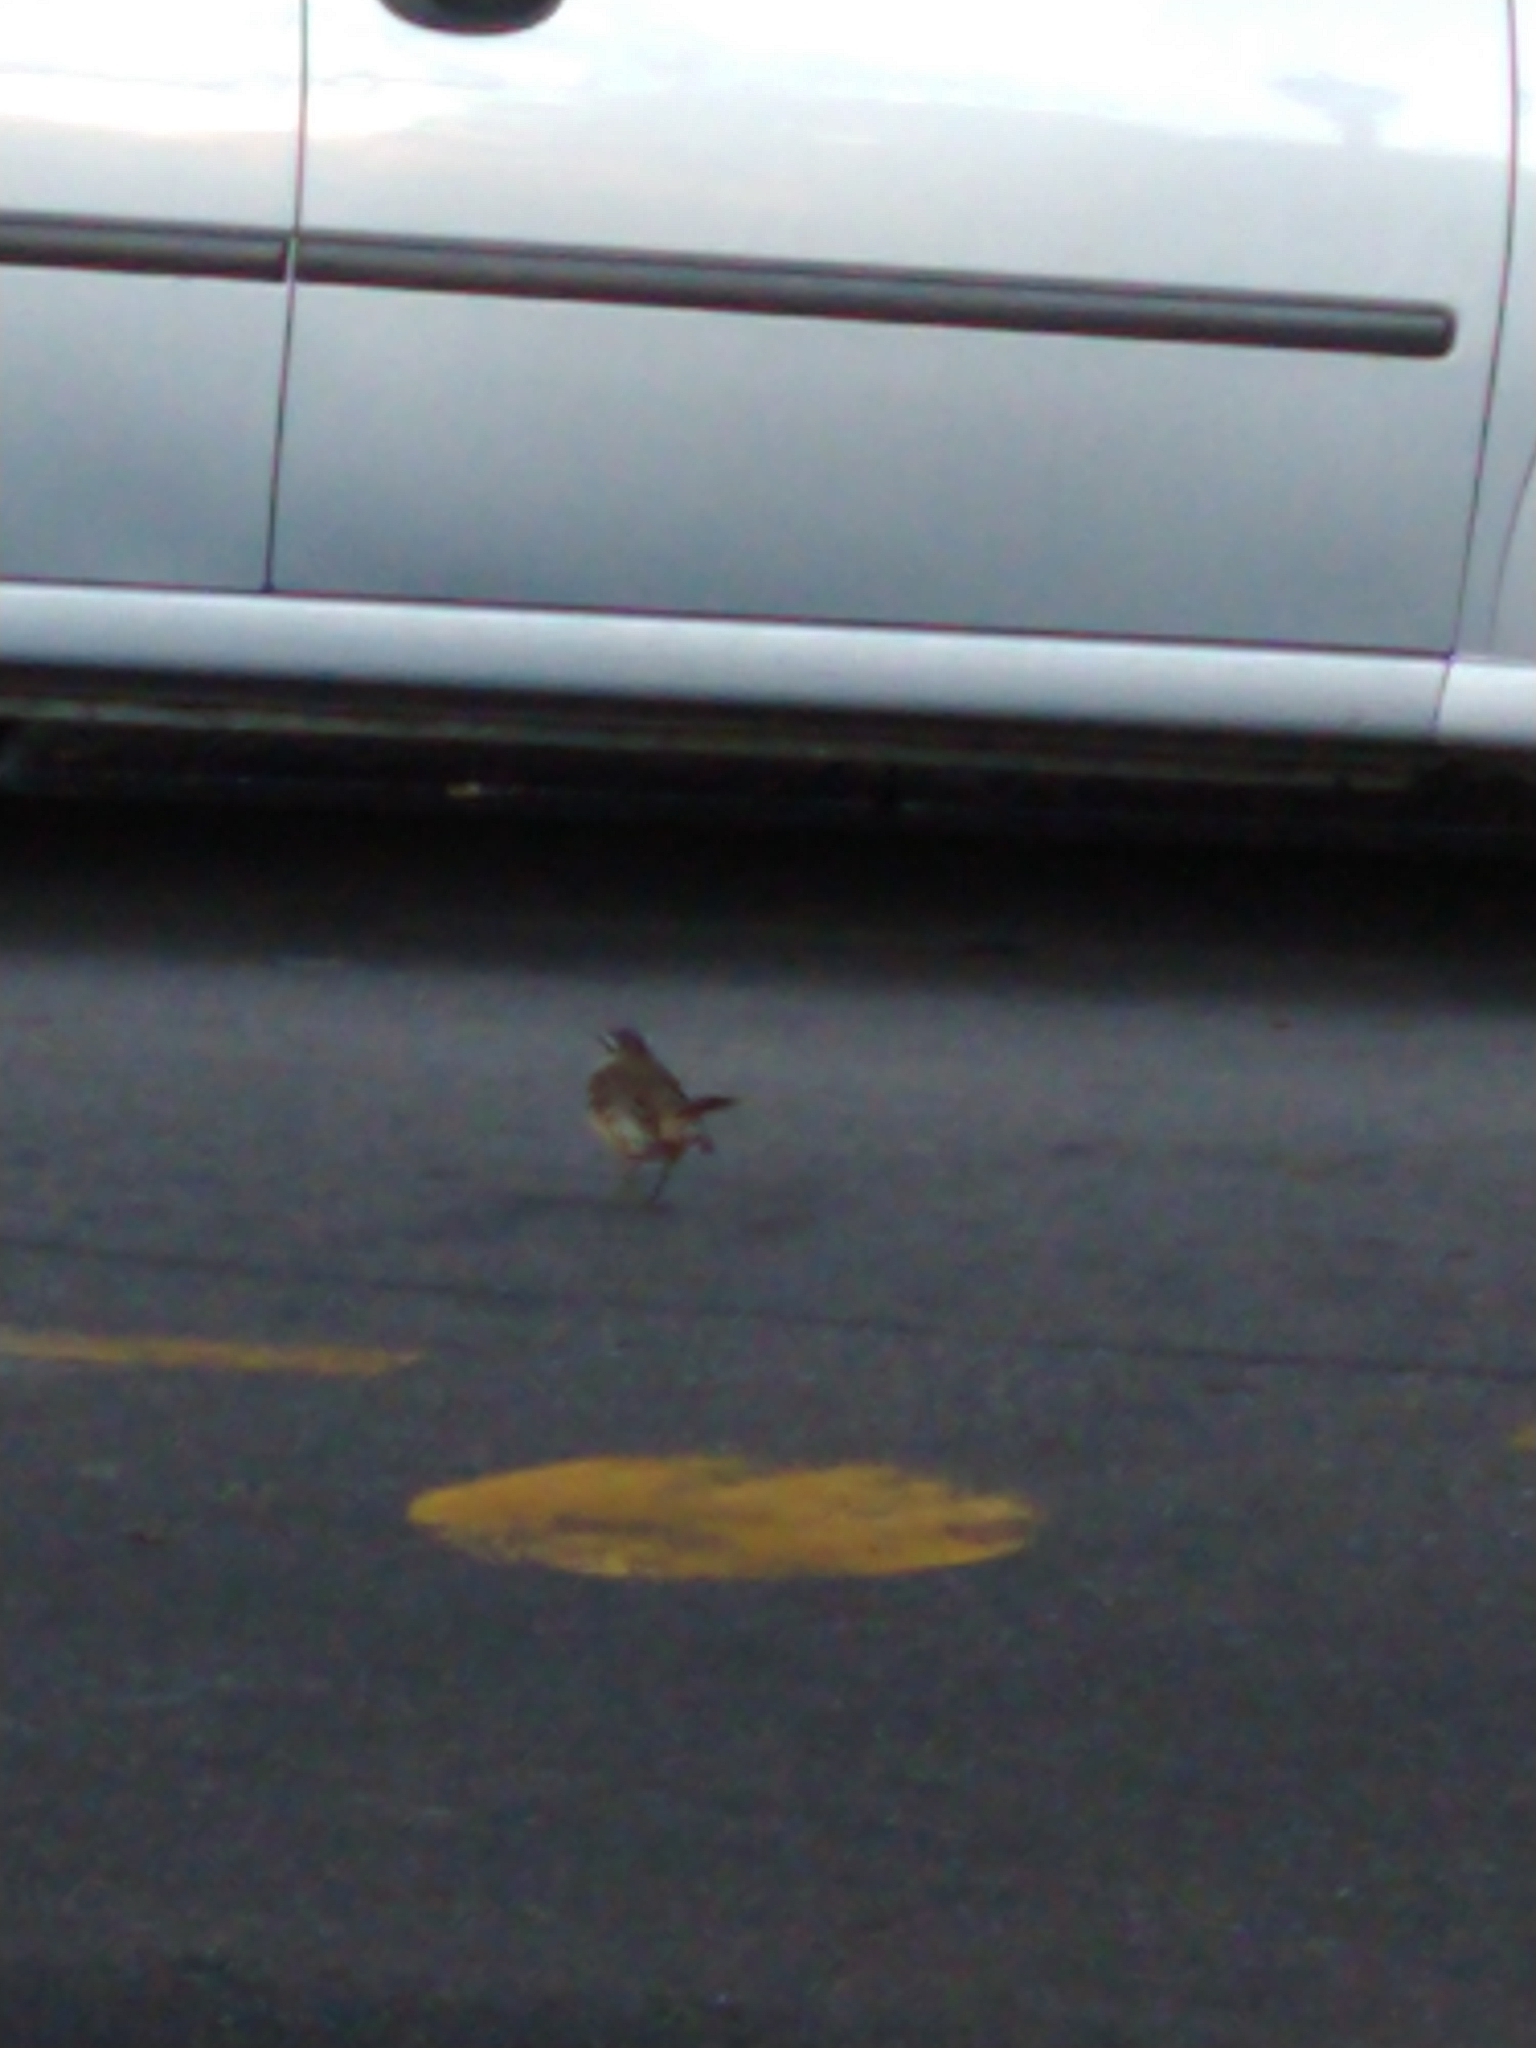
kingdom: Animalia
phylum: Chordata
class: Aves
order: Passeriformes
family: Mimidae
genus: Mimus
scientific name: Mimus saturninus
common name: Chalk-browed mockingbird
